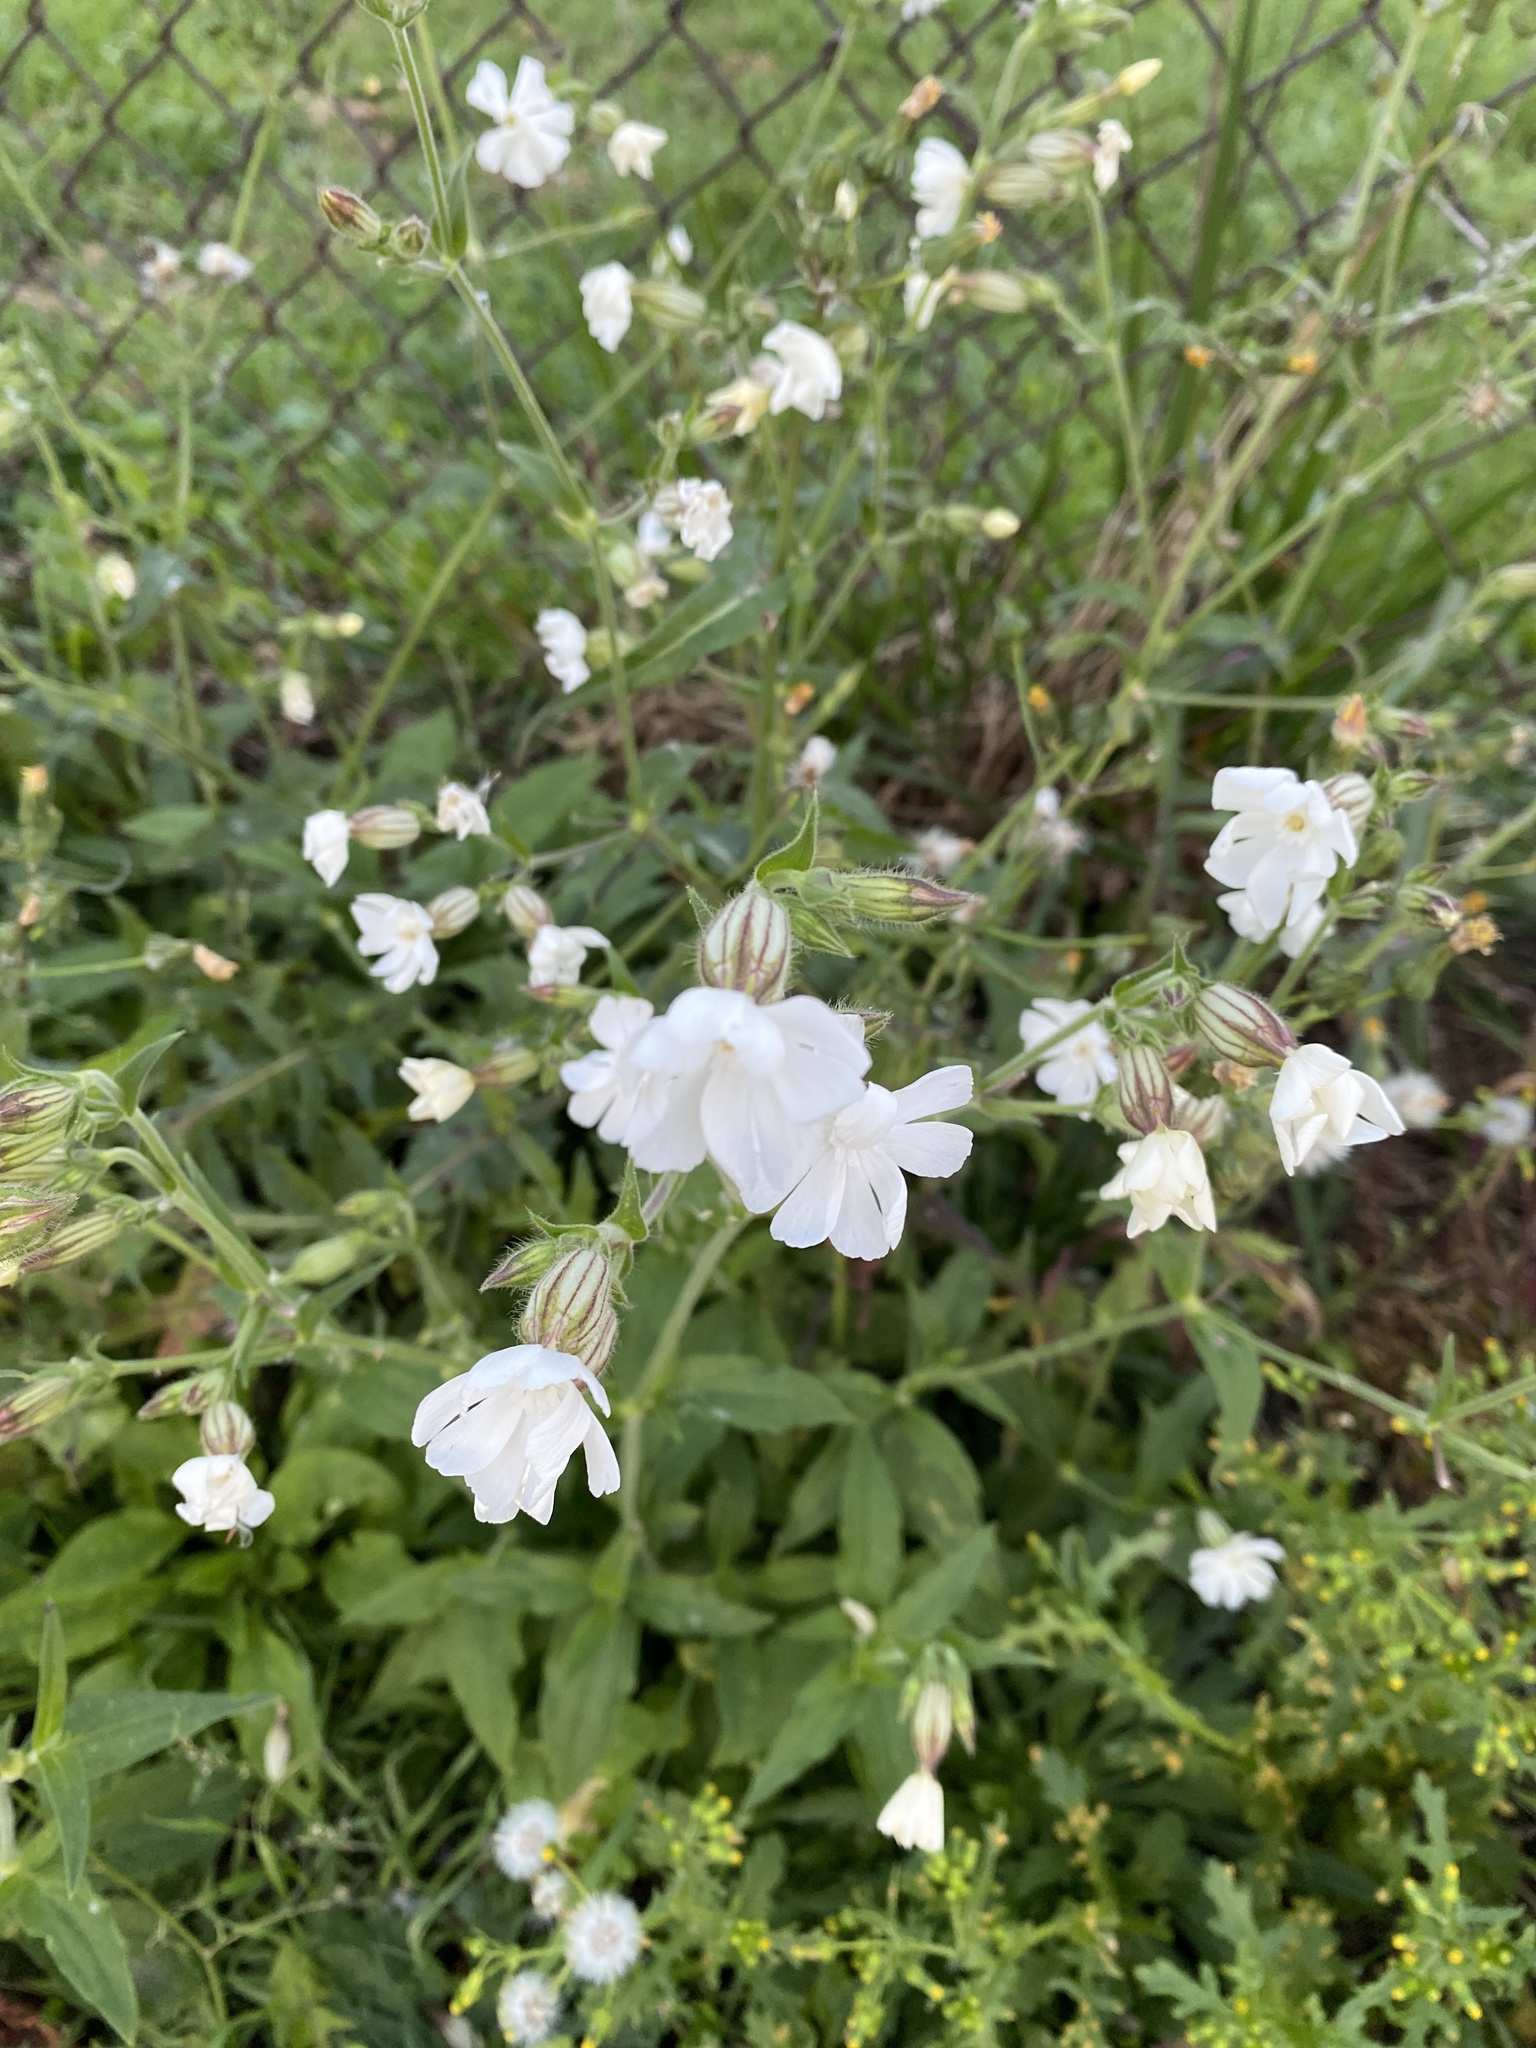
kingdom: Plantae
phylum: Tracheophyta
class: Magnoliopsida
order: Caryophyllales
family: Caryophyllaceae
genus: Silene
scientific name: Silene latifolia
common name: White campion
